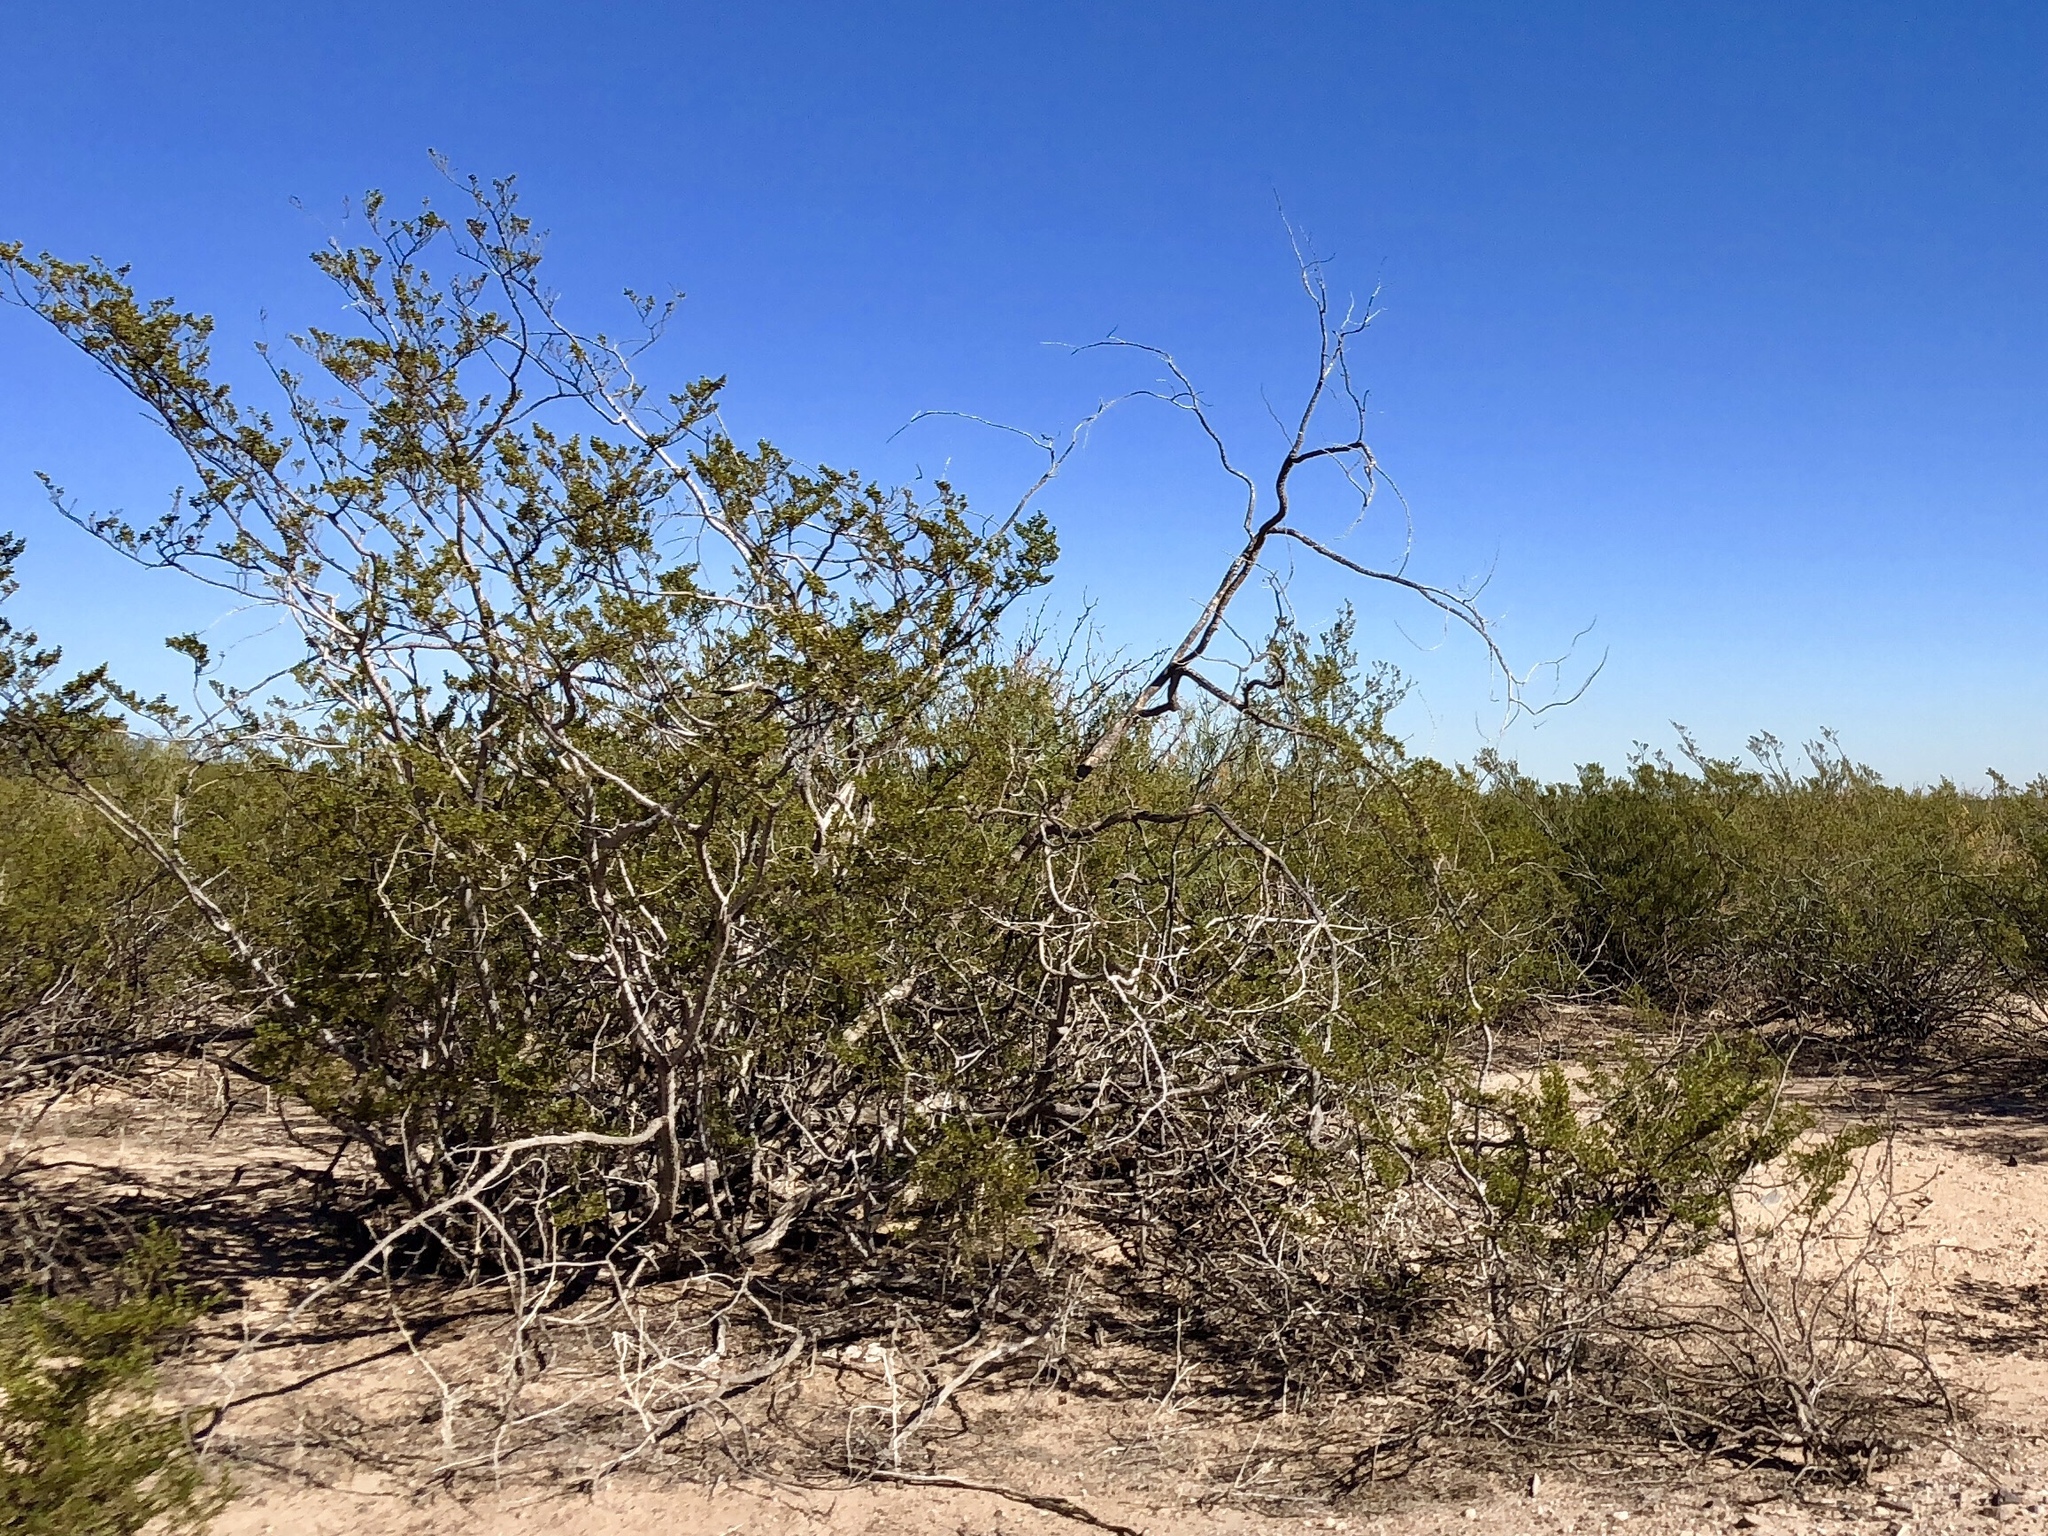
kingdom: Plantae
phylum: Tracheophyta
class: Magnoliopsida
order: Zygophyllales
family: Zygophyllaceae
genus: Larrea
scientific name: Larrea tridentata
